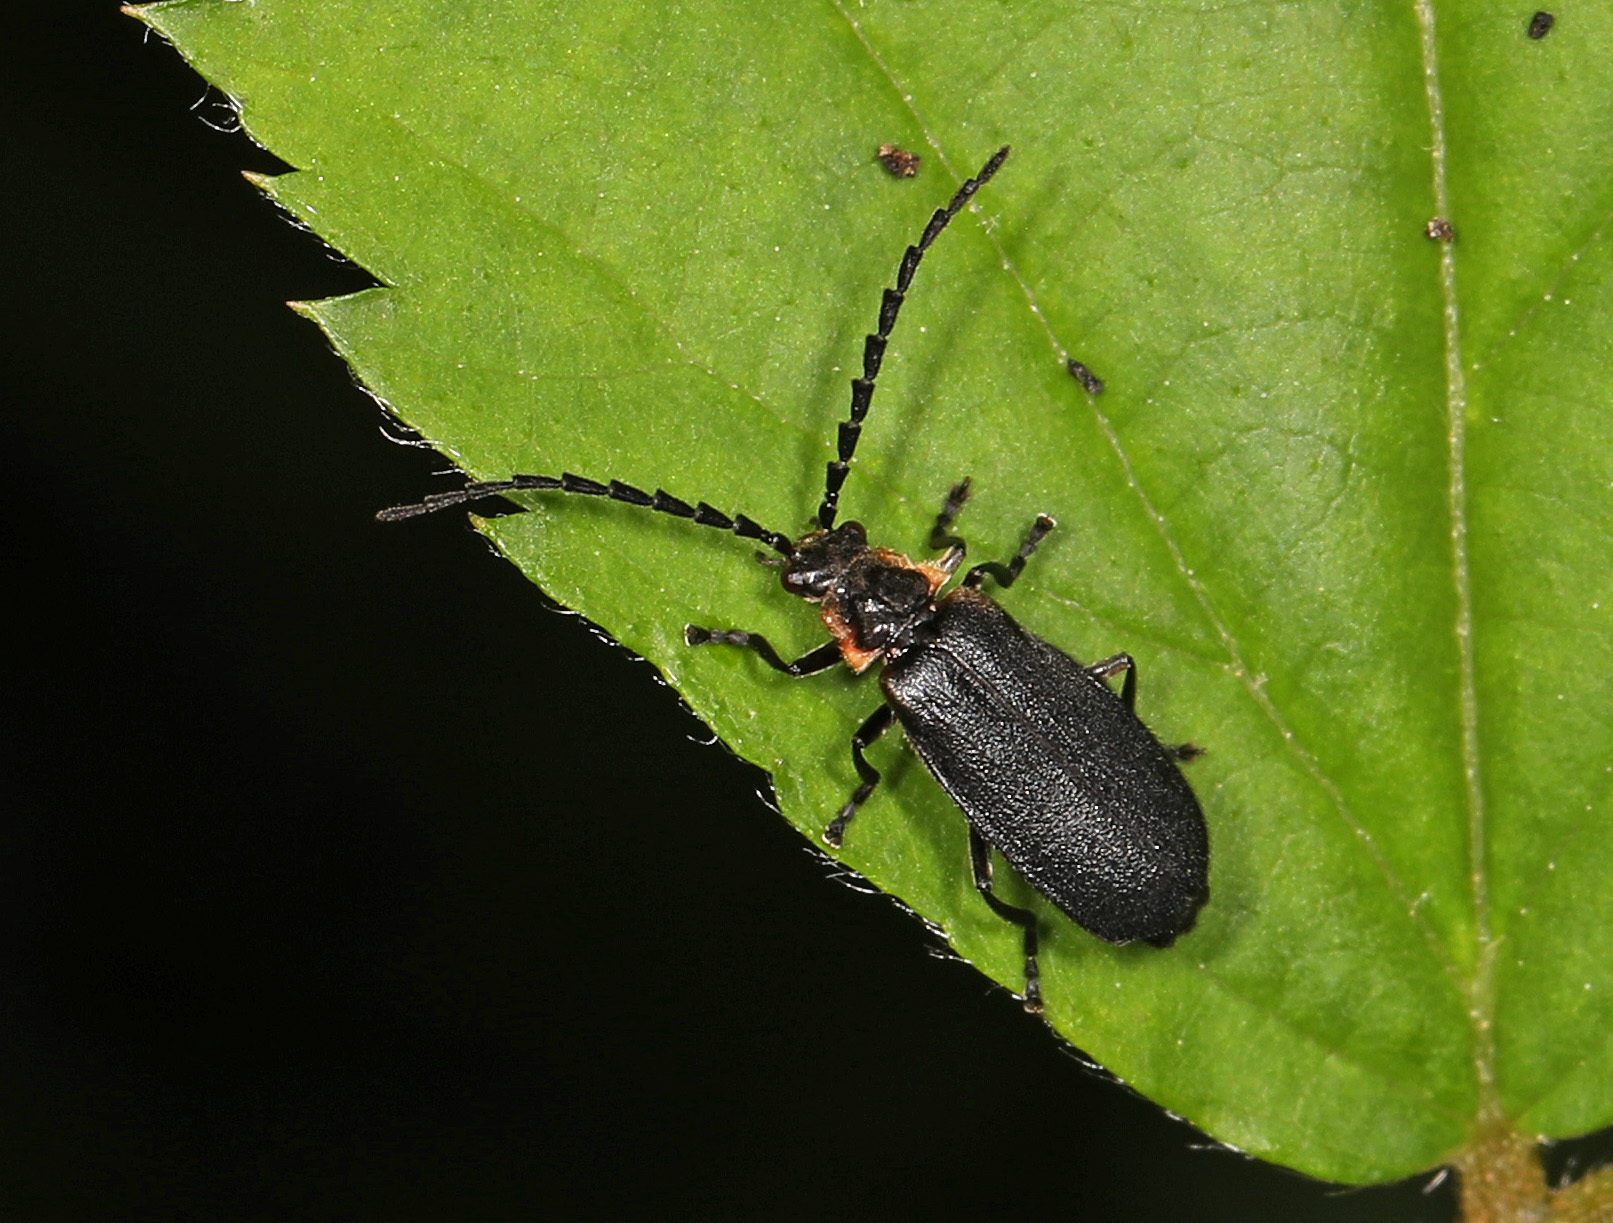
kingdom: Animalia
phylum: Arthropoda
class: Insecta
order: Coleoptera
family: Cantharidae
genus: Polemius
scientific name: Polemius laticornis
